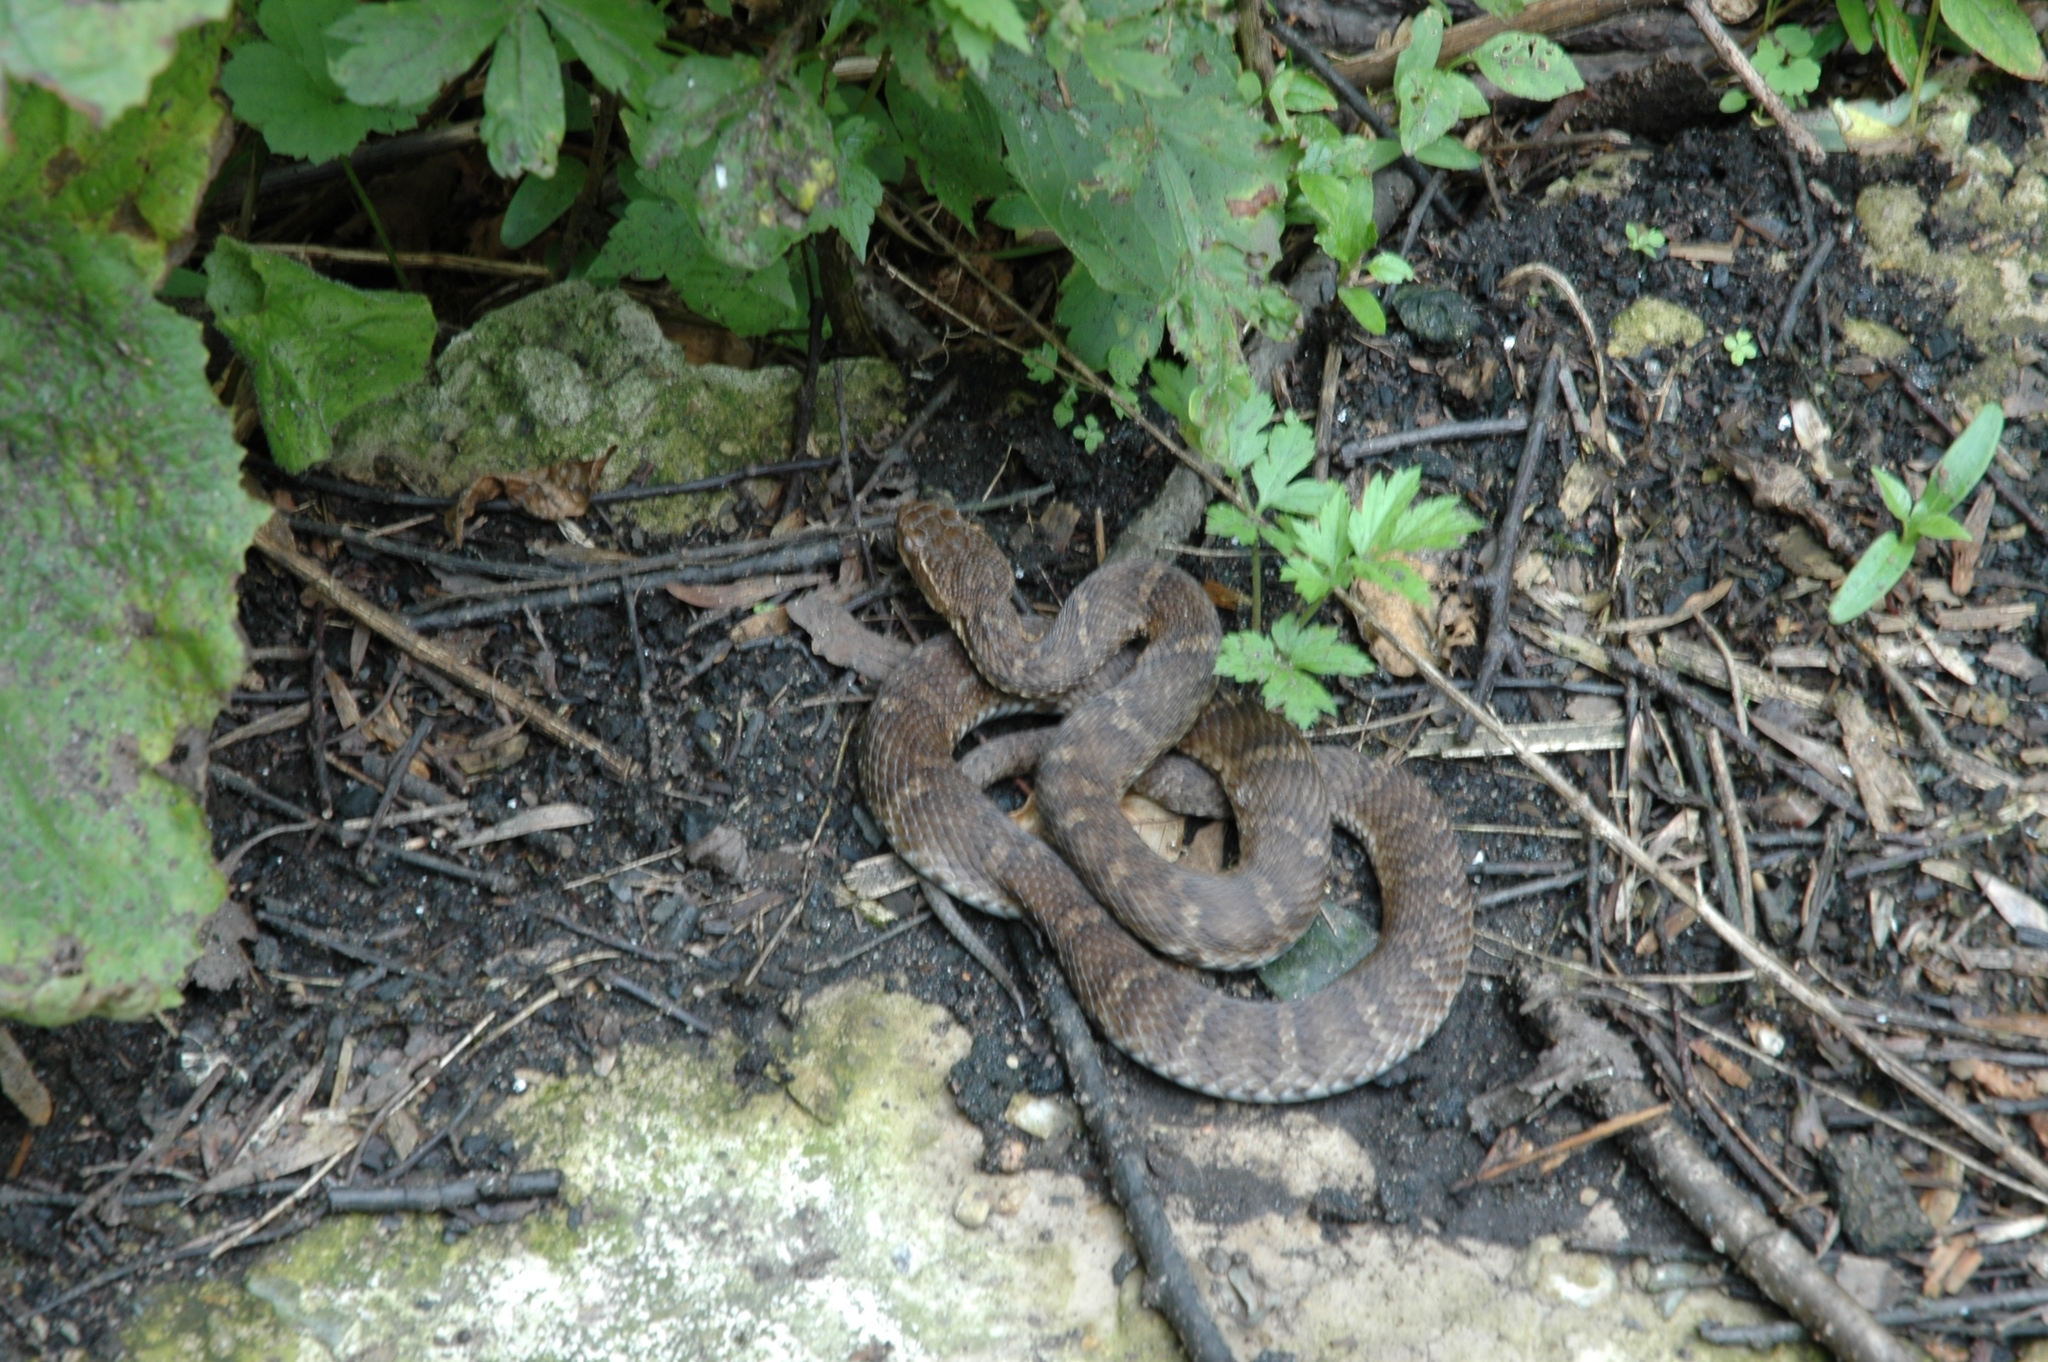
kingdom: Animalia
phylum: Chordata
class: Squamata
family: Viperidae
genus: Gloydius
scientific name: Gloydius ussuriensis
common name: Ussuri mamushi
